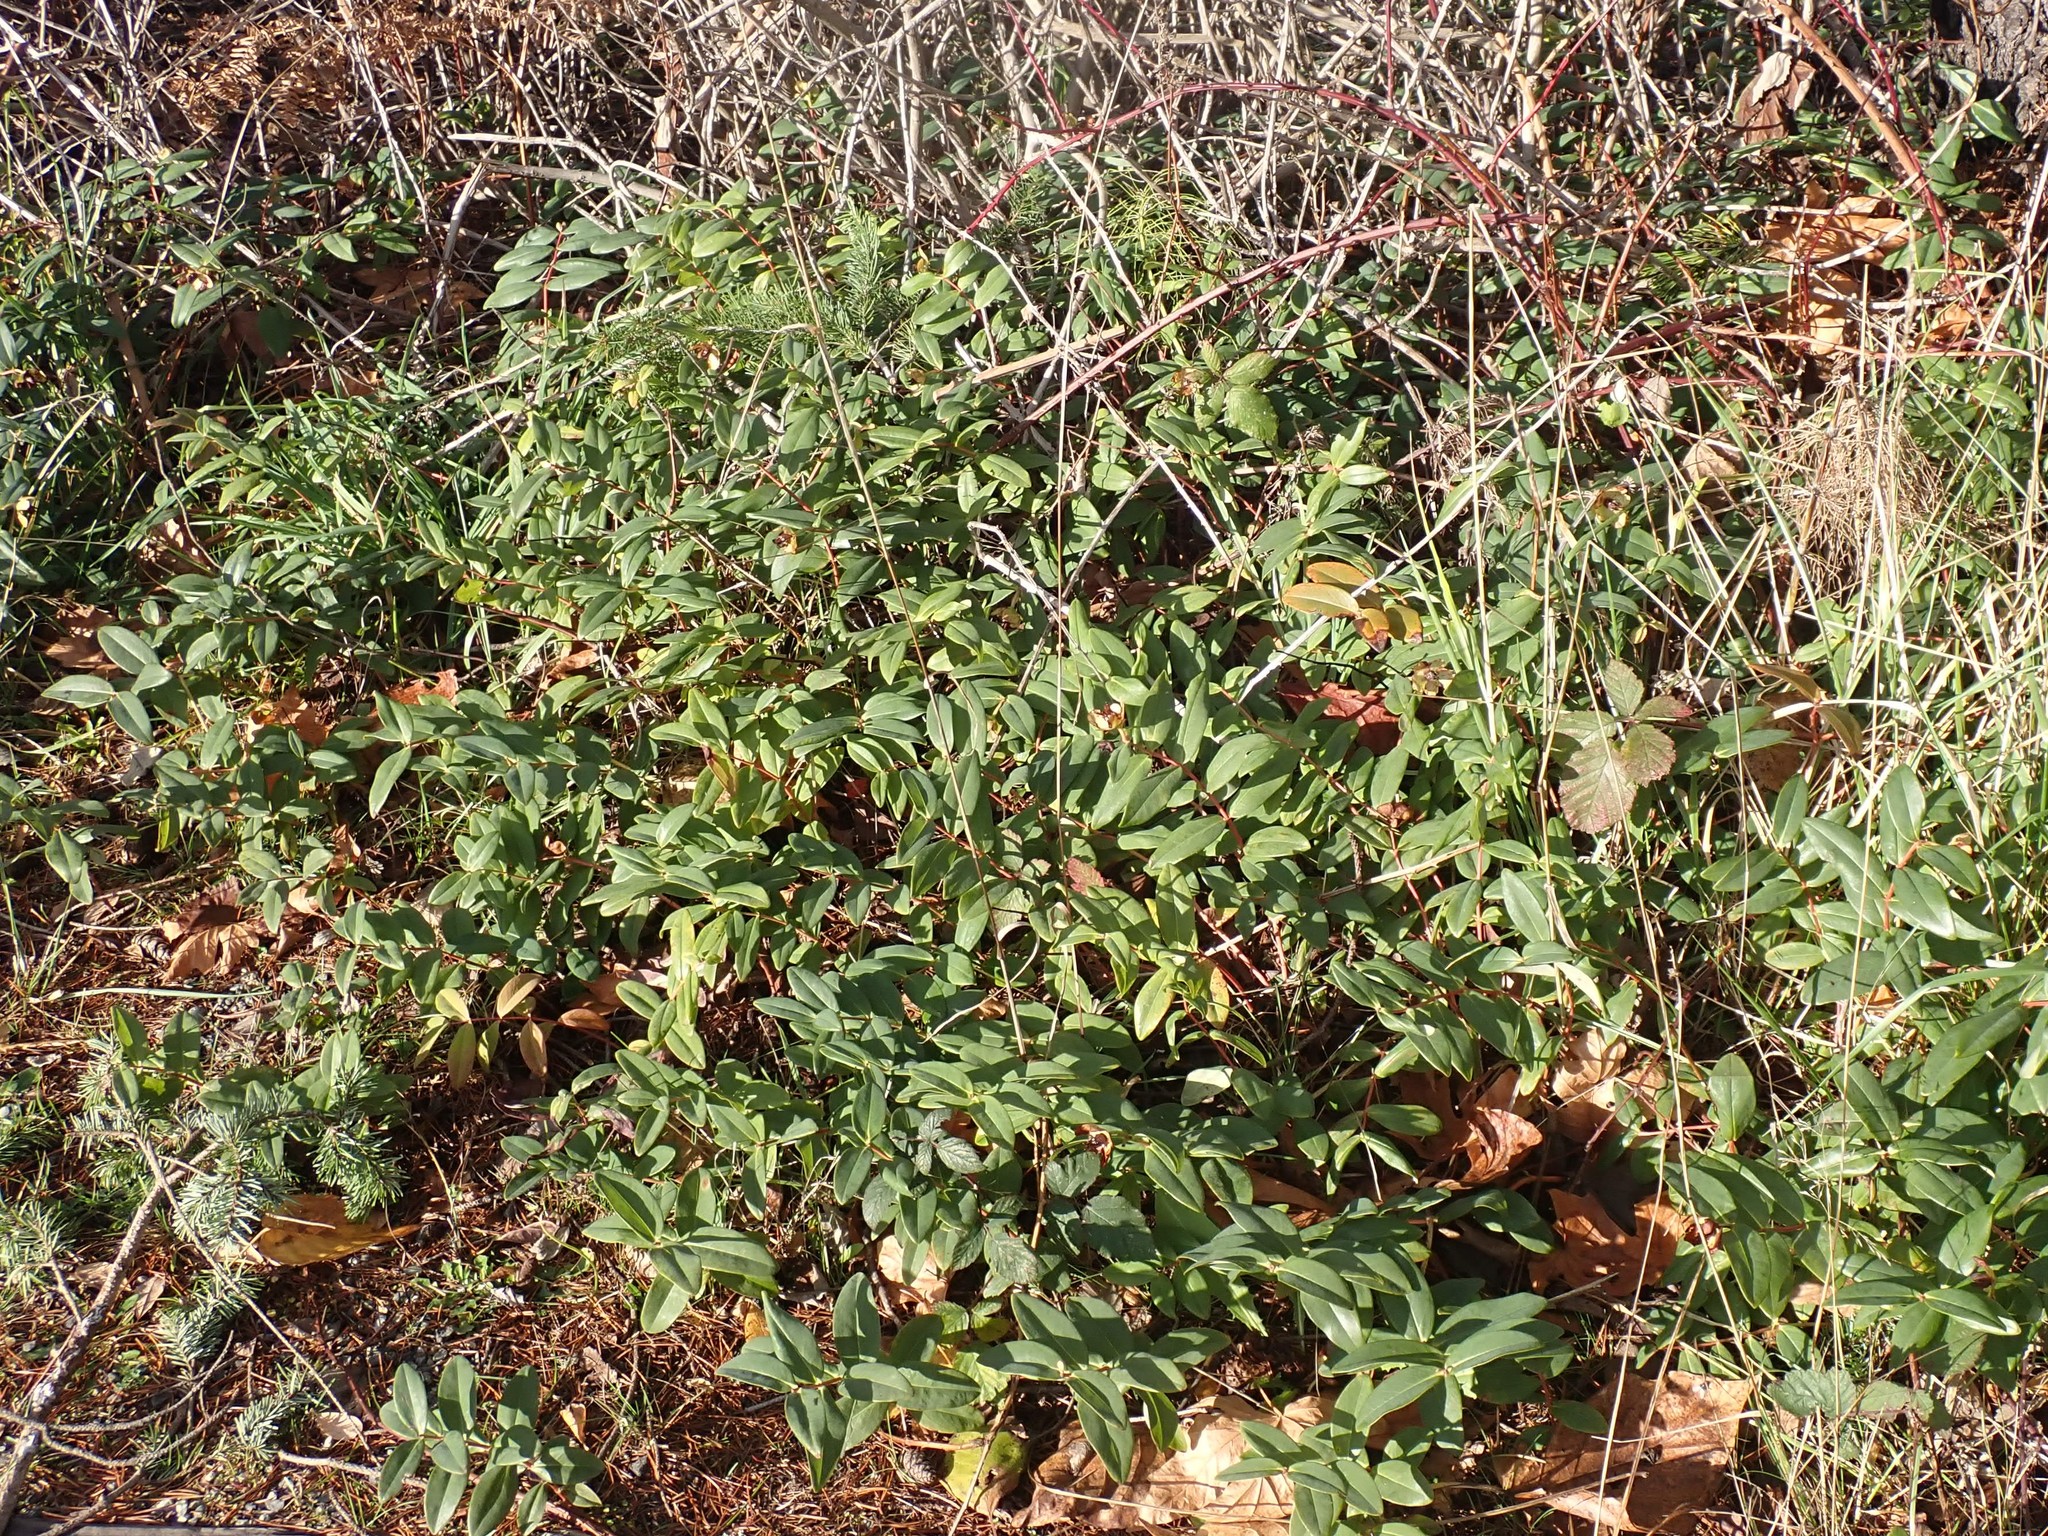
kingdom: Plantae
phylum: Tracheophyta
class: Magnoliopsida
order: Malpighiales
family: Hypericaceae
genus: Hypericum
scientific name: Hypericum calycinum
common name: Rose-of-sharon
